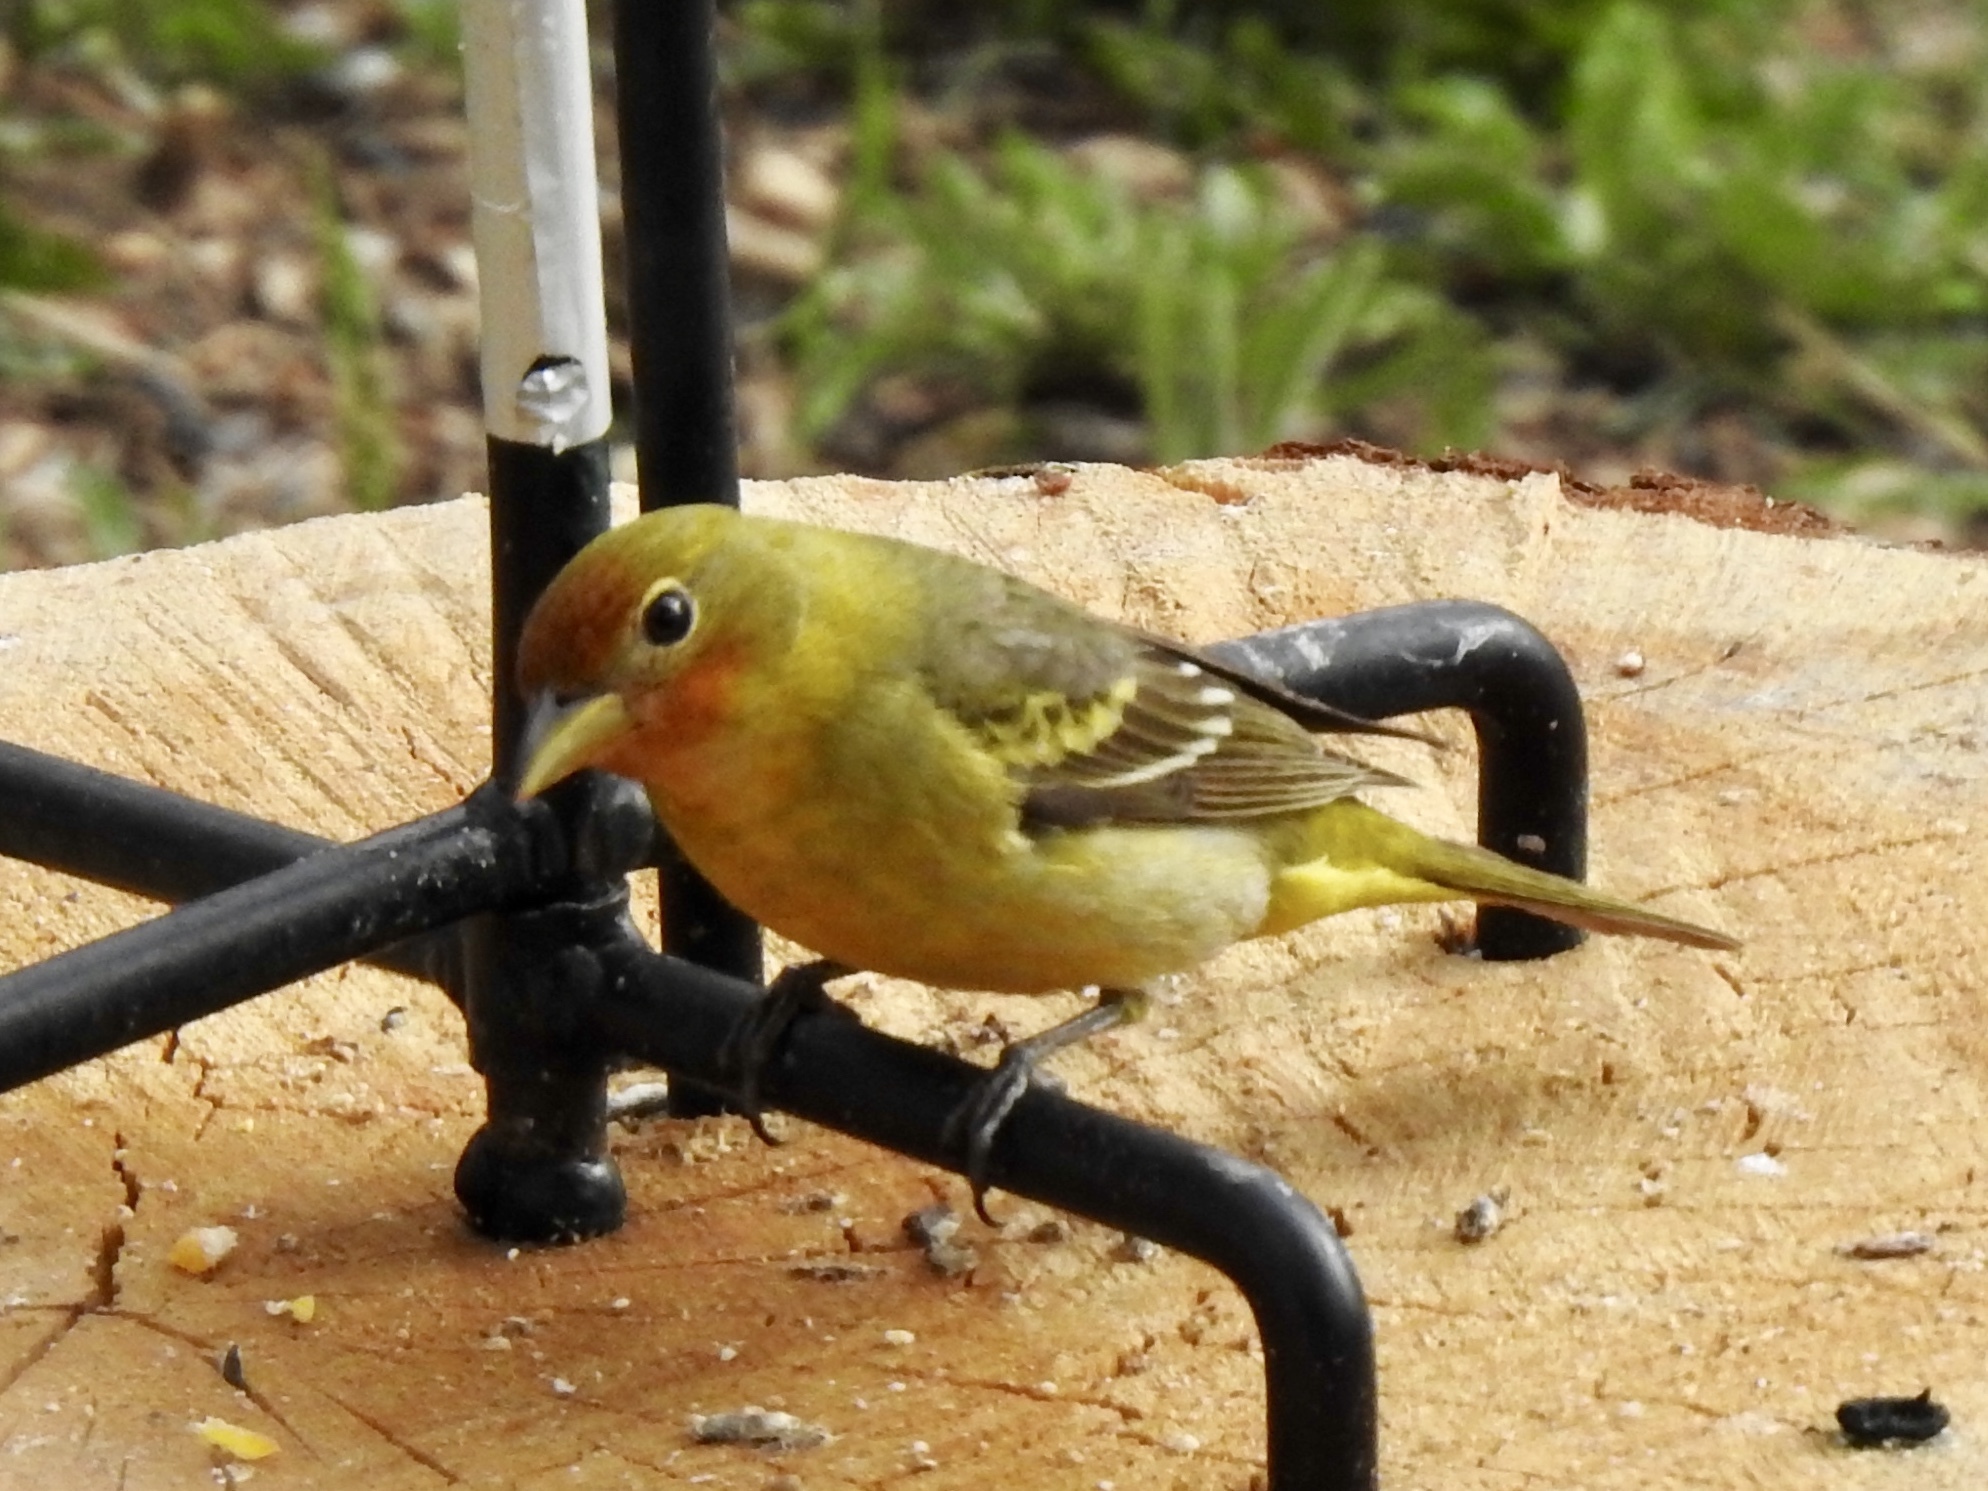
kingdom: Animalia
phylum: Chordata
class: Aves
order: Passeriformes
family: Cardinalidae
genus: Piranga
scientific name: Piranga ludoviciana
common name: Western tanager
